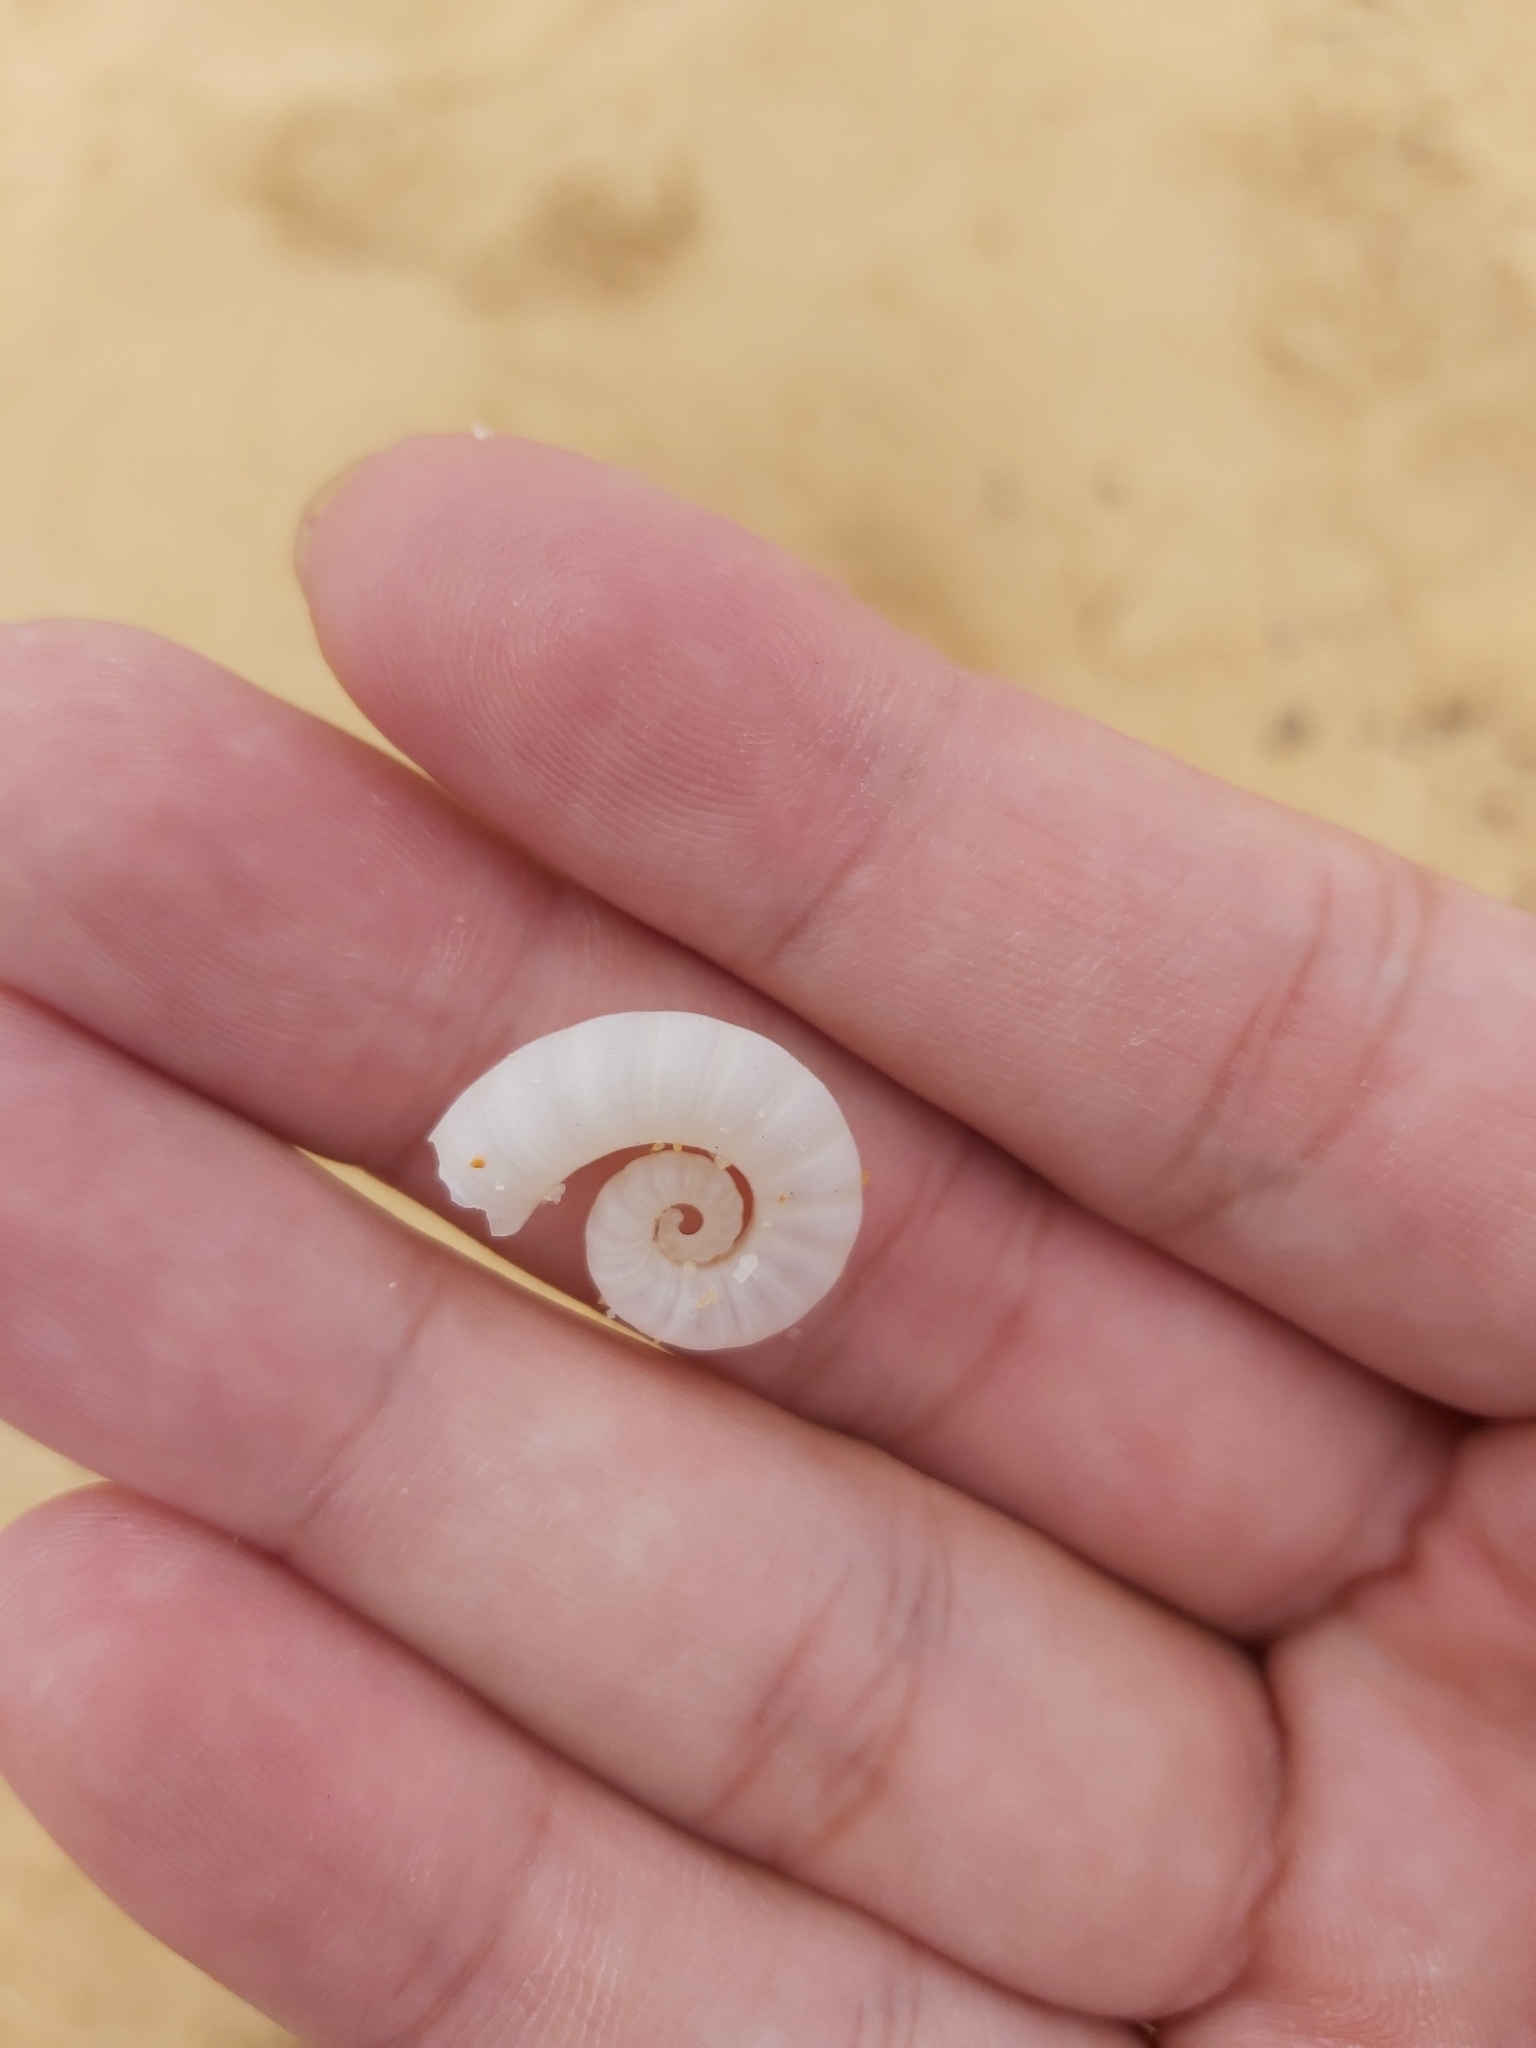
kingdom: Animalia
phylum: Mollusca
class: Cephalopoda
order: Spirulida
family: Spirulidae
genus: Spirula
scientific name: Spirula spirula
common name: Ram's horn squid
